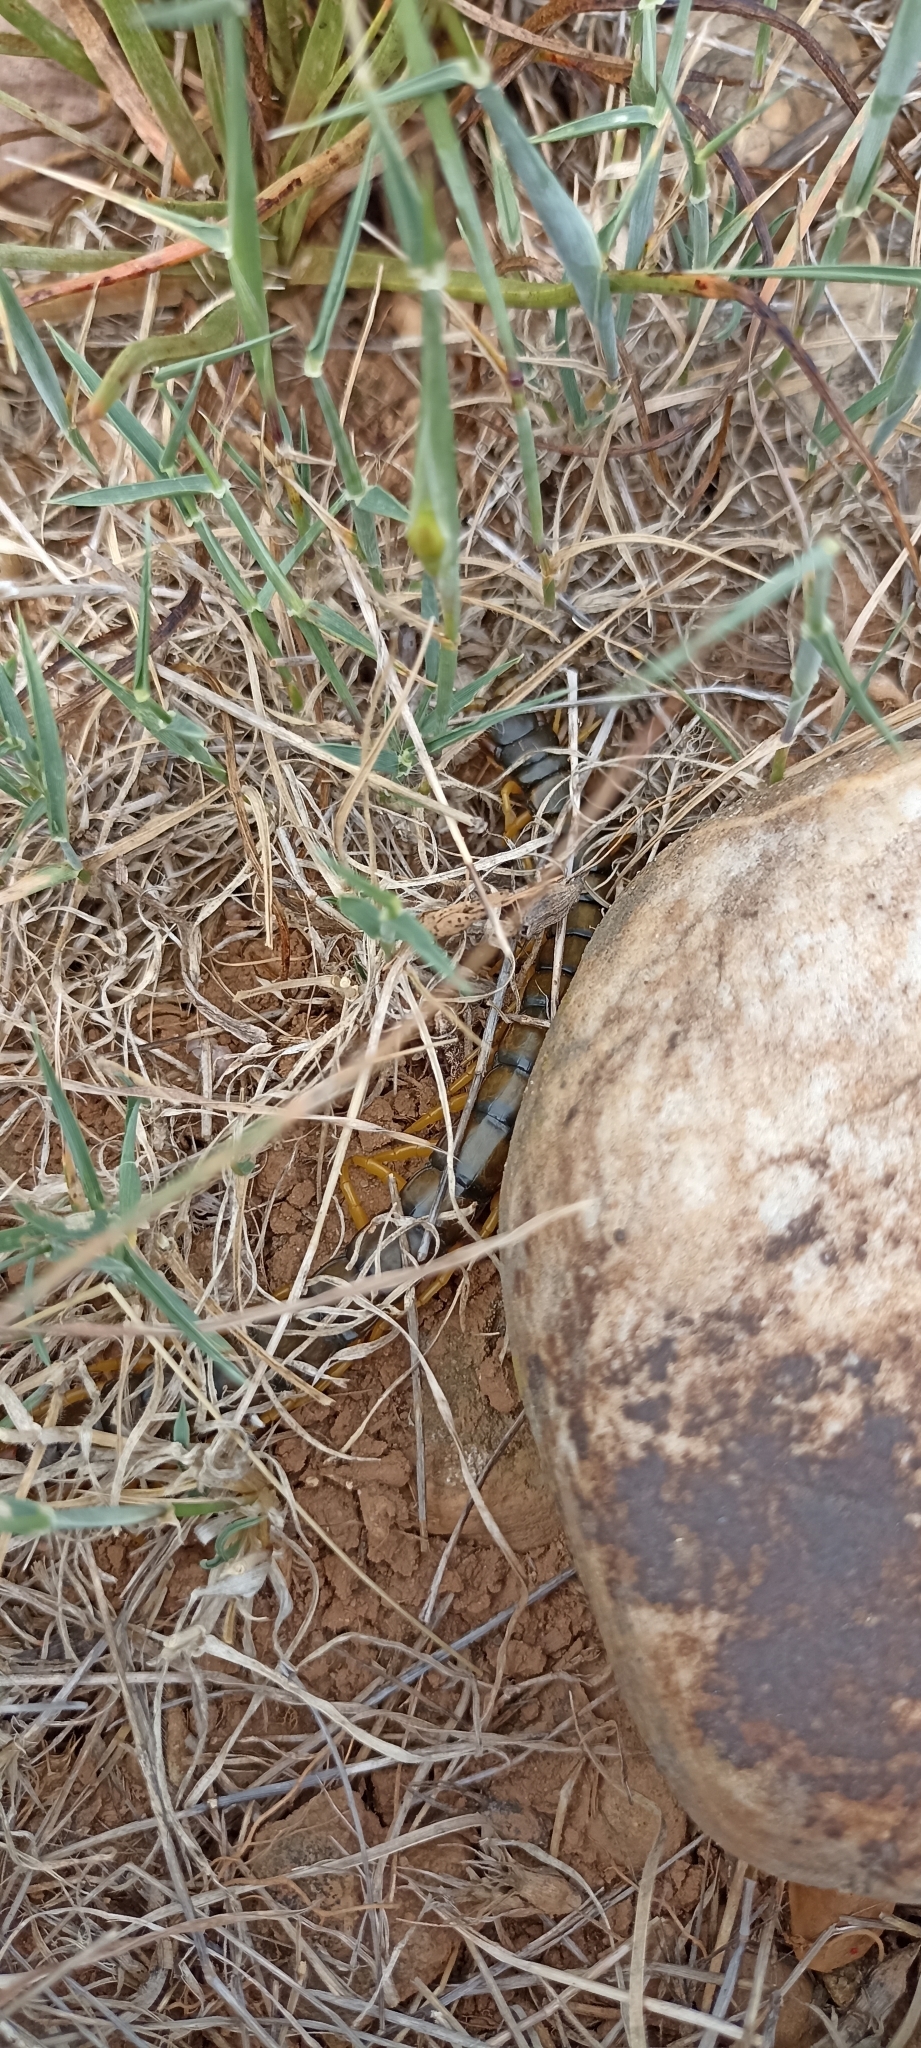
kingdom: Animalia
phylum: Arthropoda
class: Chilopoda
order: Scolopendromorpha
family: Scolopendridae
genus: Scolopendra
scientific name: Scolopendra cingulata
